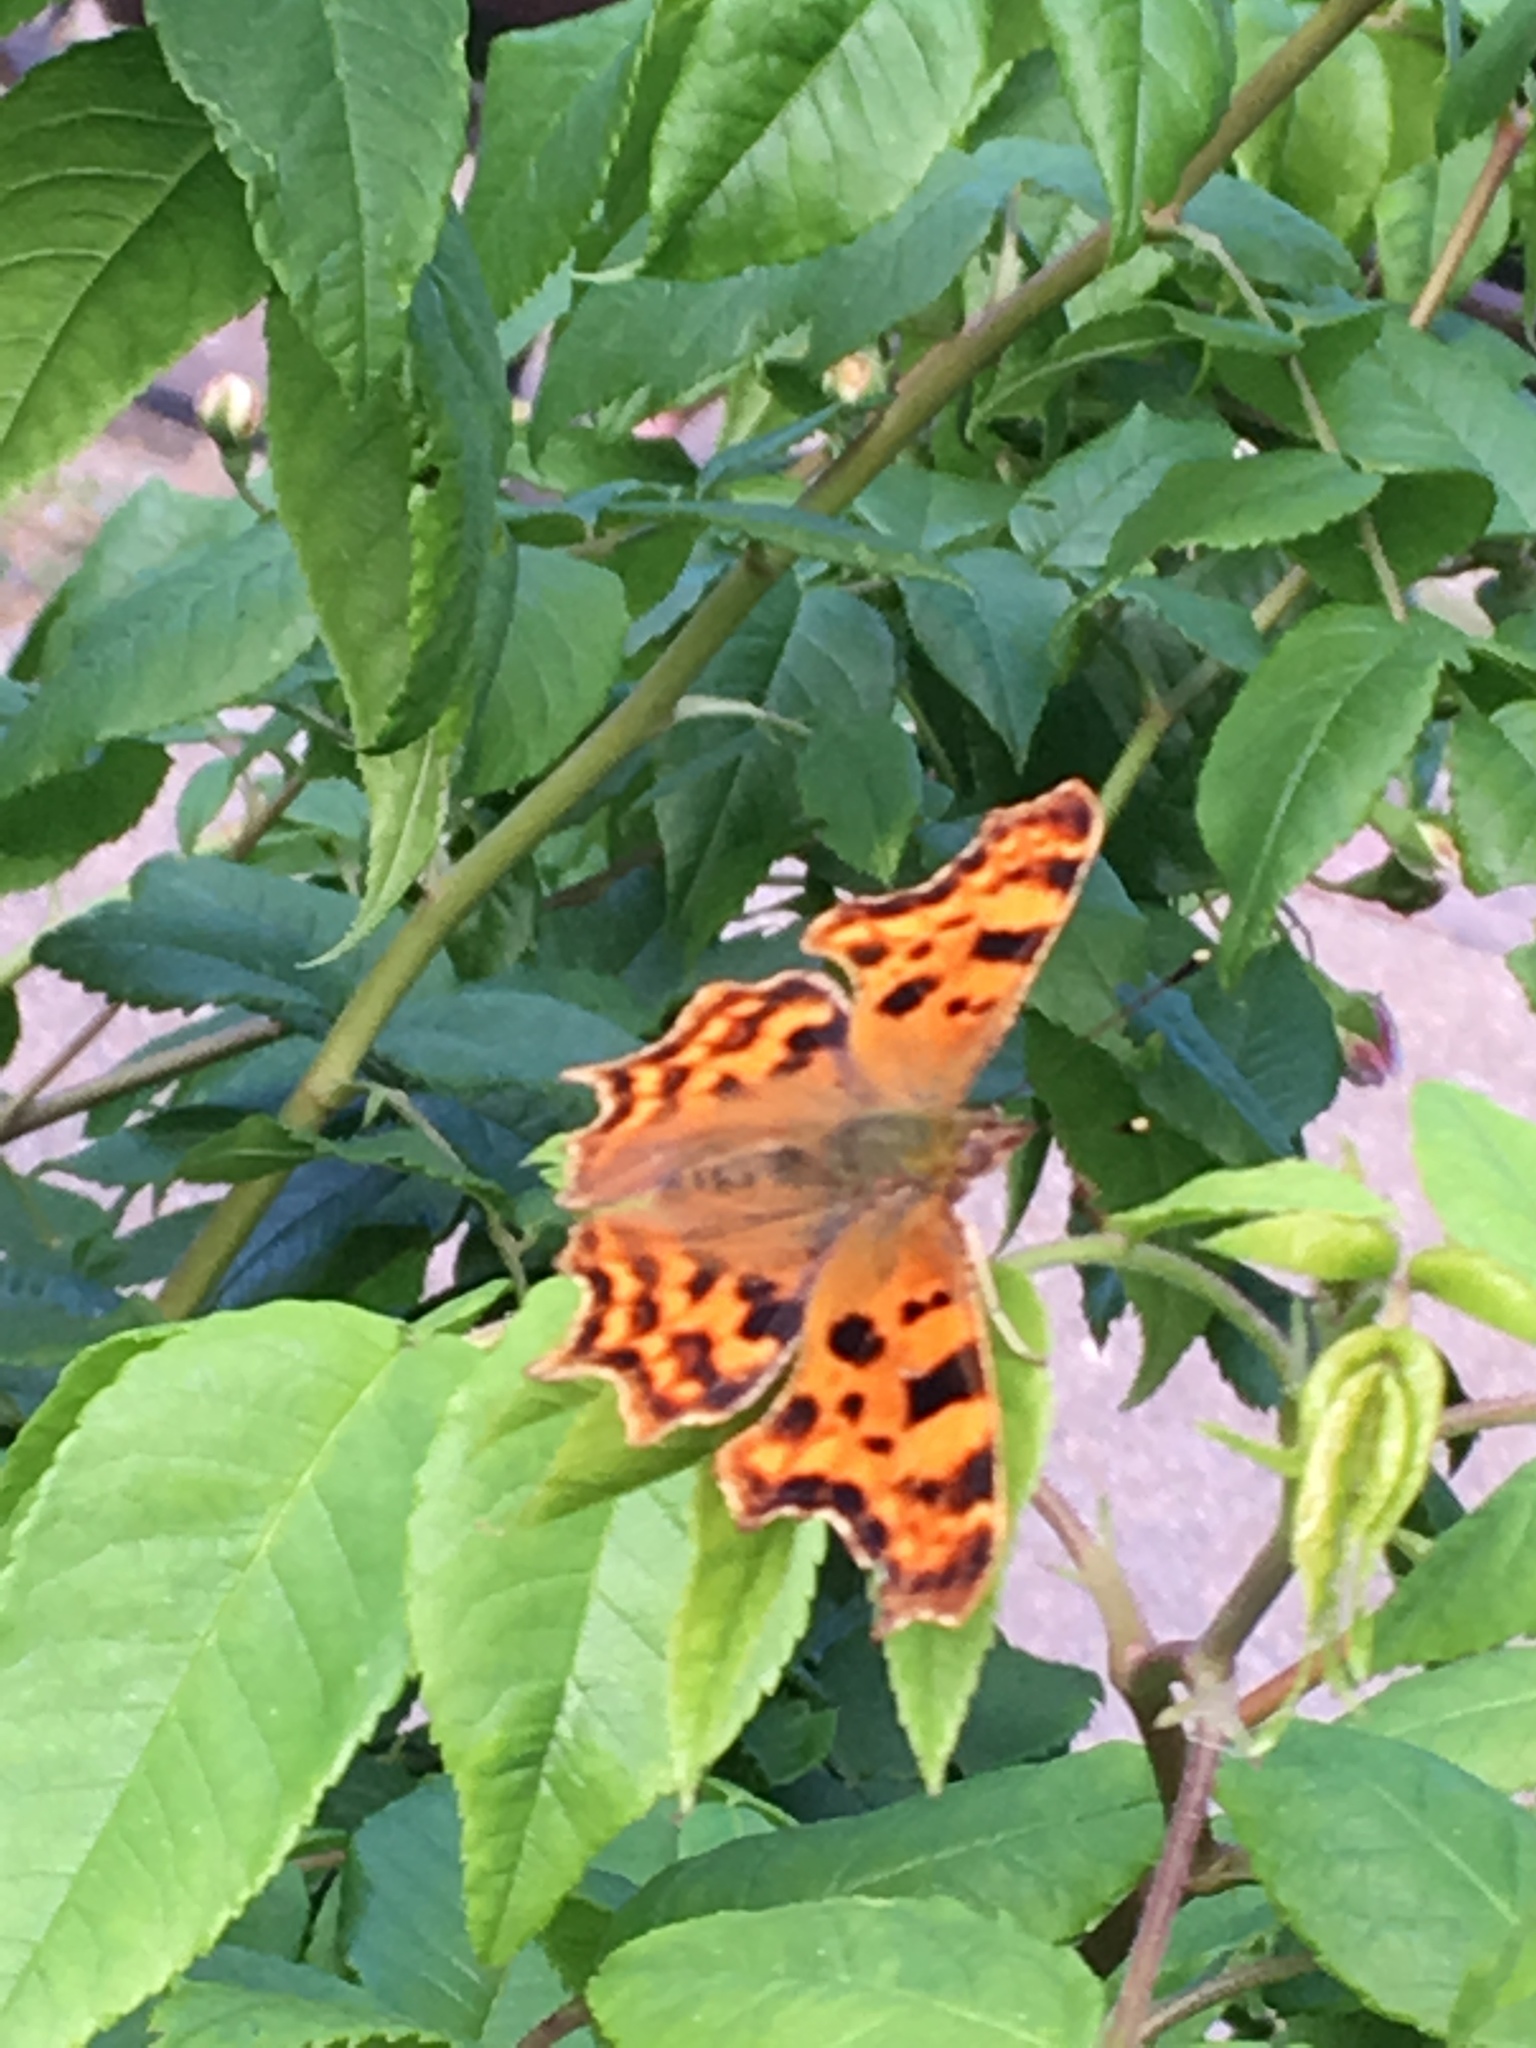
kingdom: Animalia
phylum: Arthropoda
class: Insecta
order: Lepidoptera
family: Nymphalidae
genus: Polygonia
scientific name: Polygonia c-album
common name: Comma
